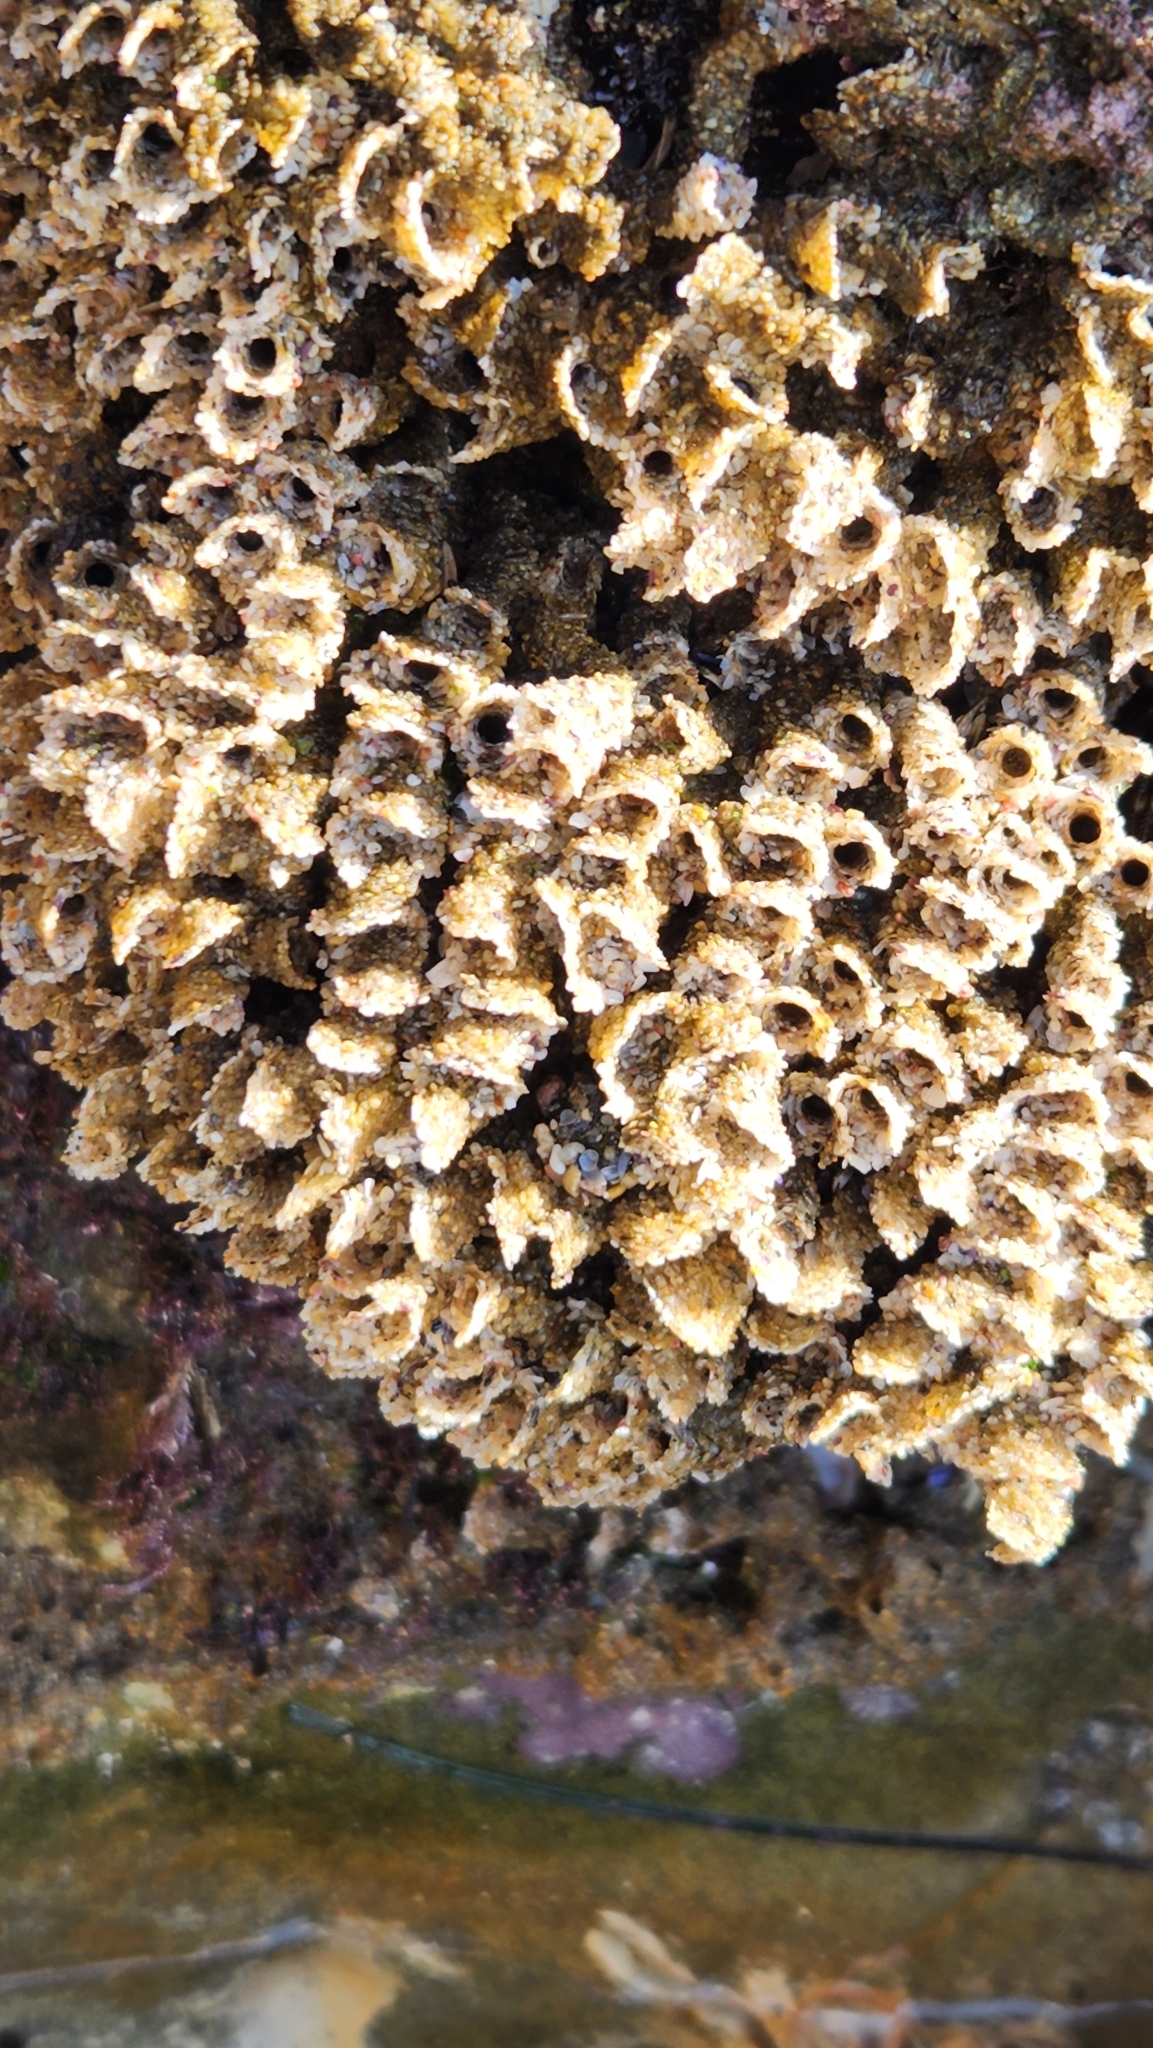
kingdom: Animalia
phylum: Annelida
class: Polychaeta
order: Sabellida
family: Sabellariidae
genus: Phragmatopoma
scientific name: Phragmatopoma californica
